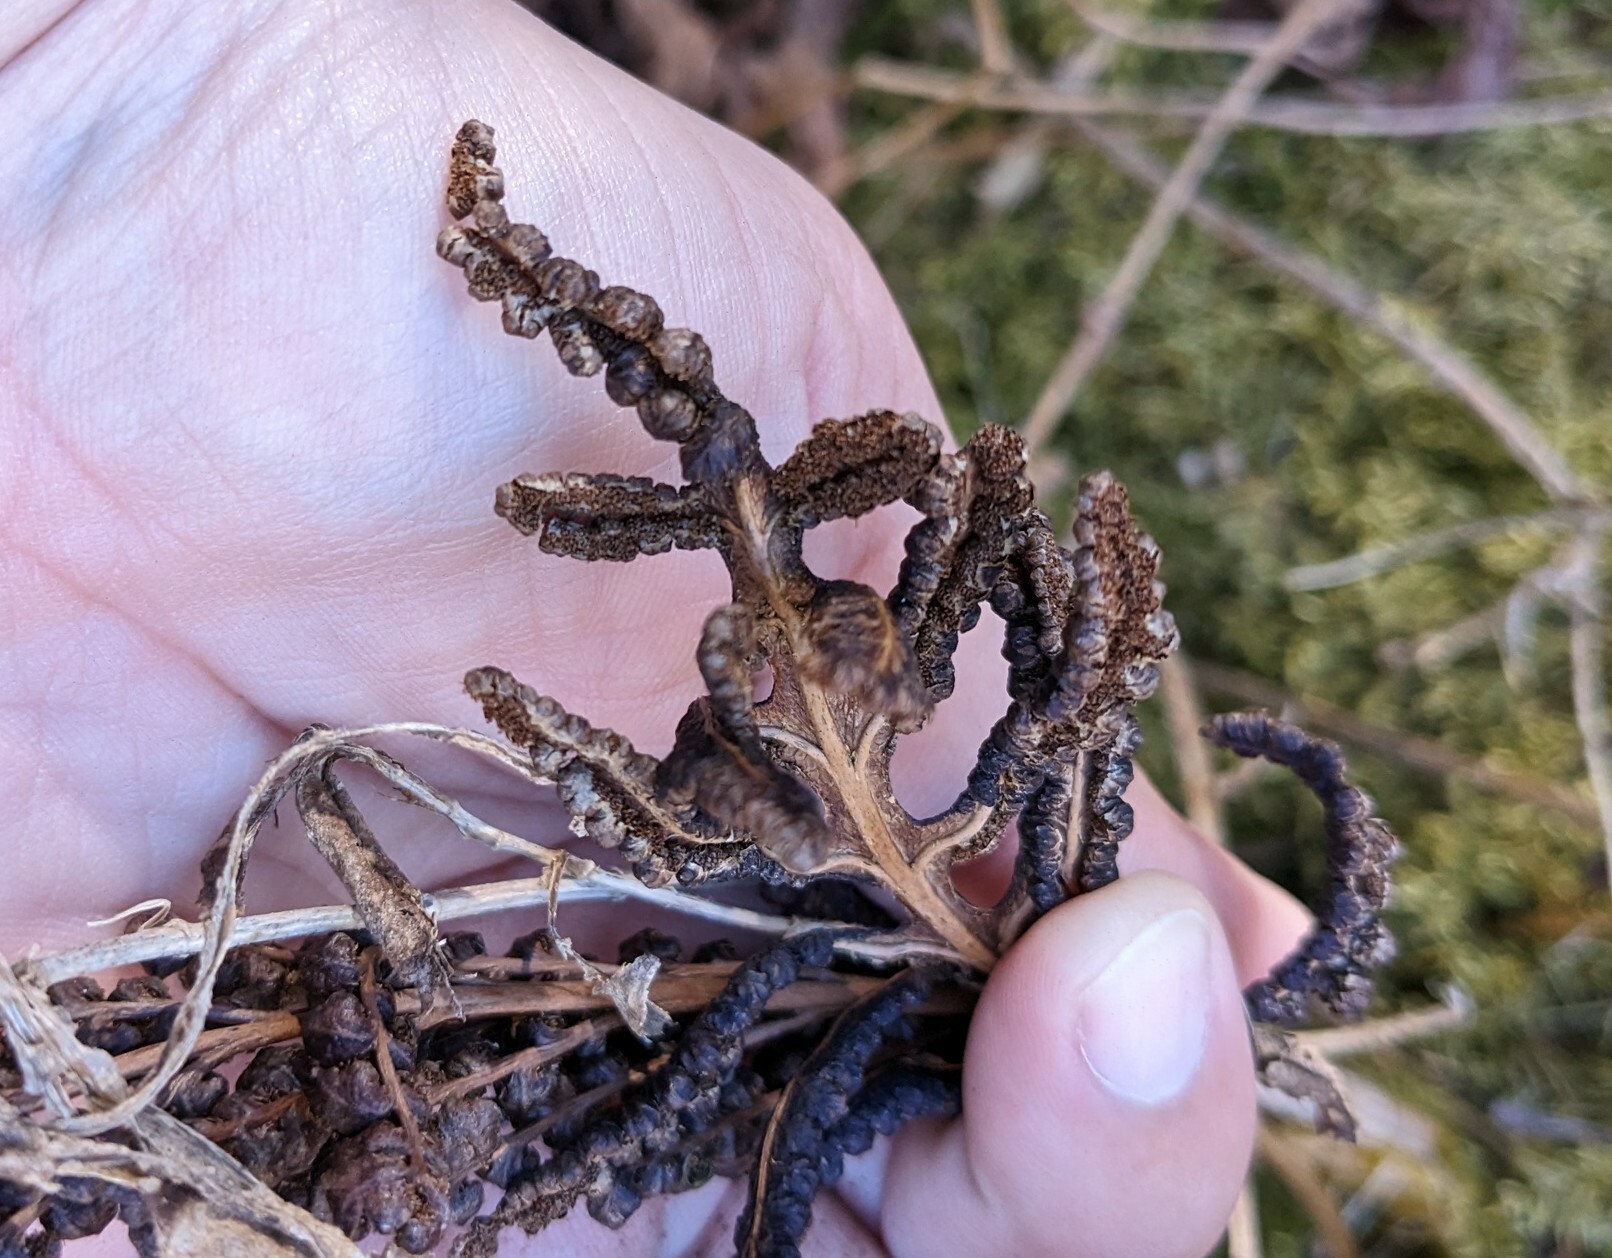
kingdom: Plantae
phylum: Tracheophyta
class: Polypodiopsida
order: Polypodiales
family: Onocleaceae
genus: Onoclea
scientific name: Onoclea sensibilis
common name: Sensitive fern
